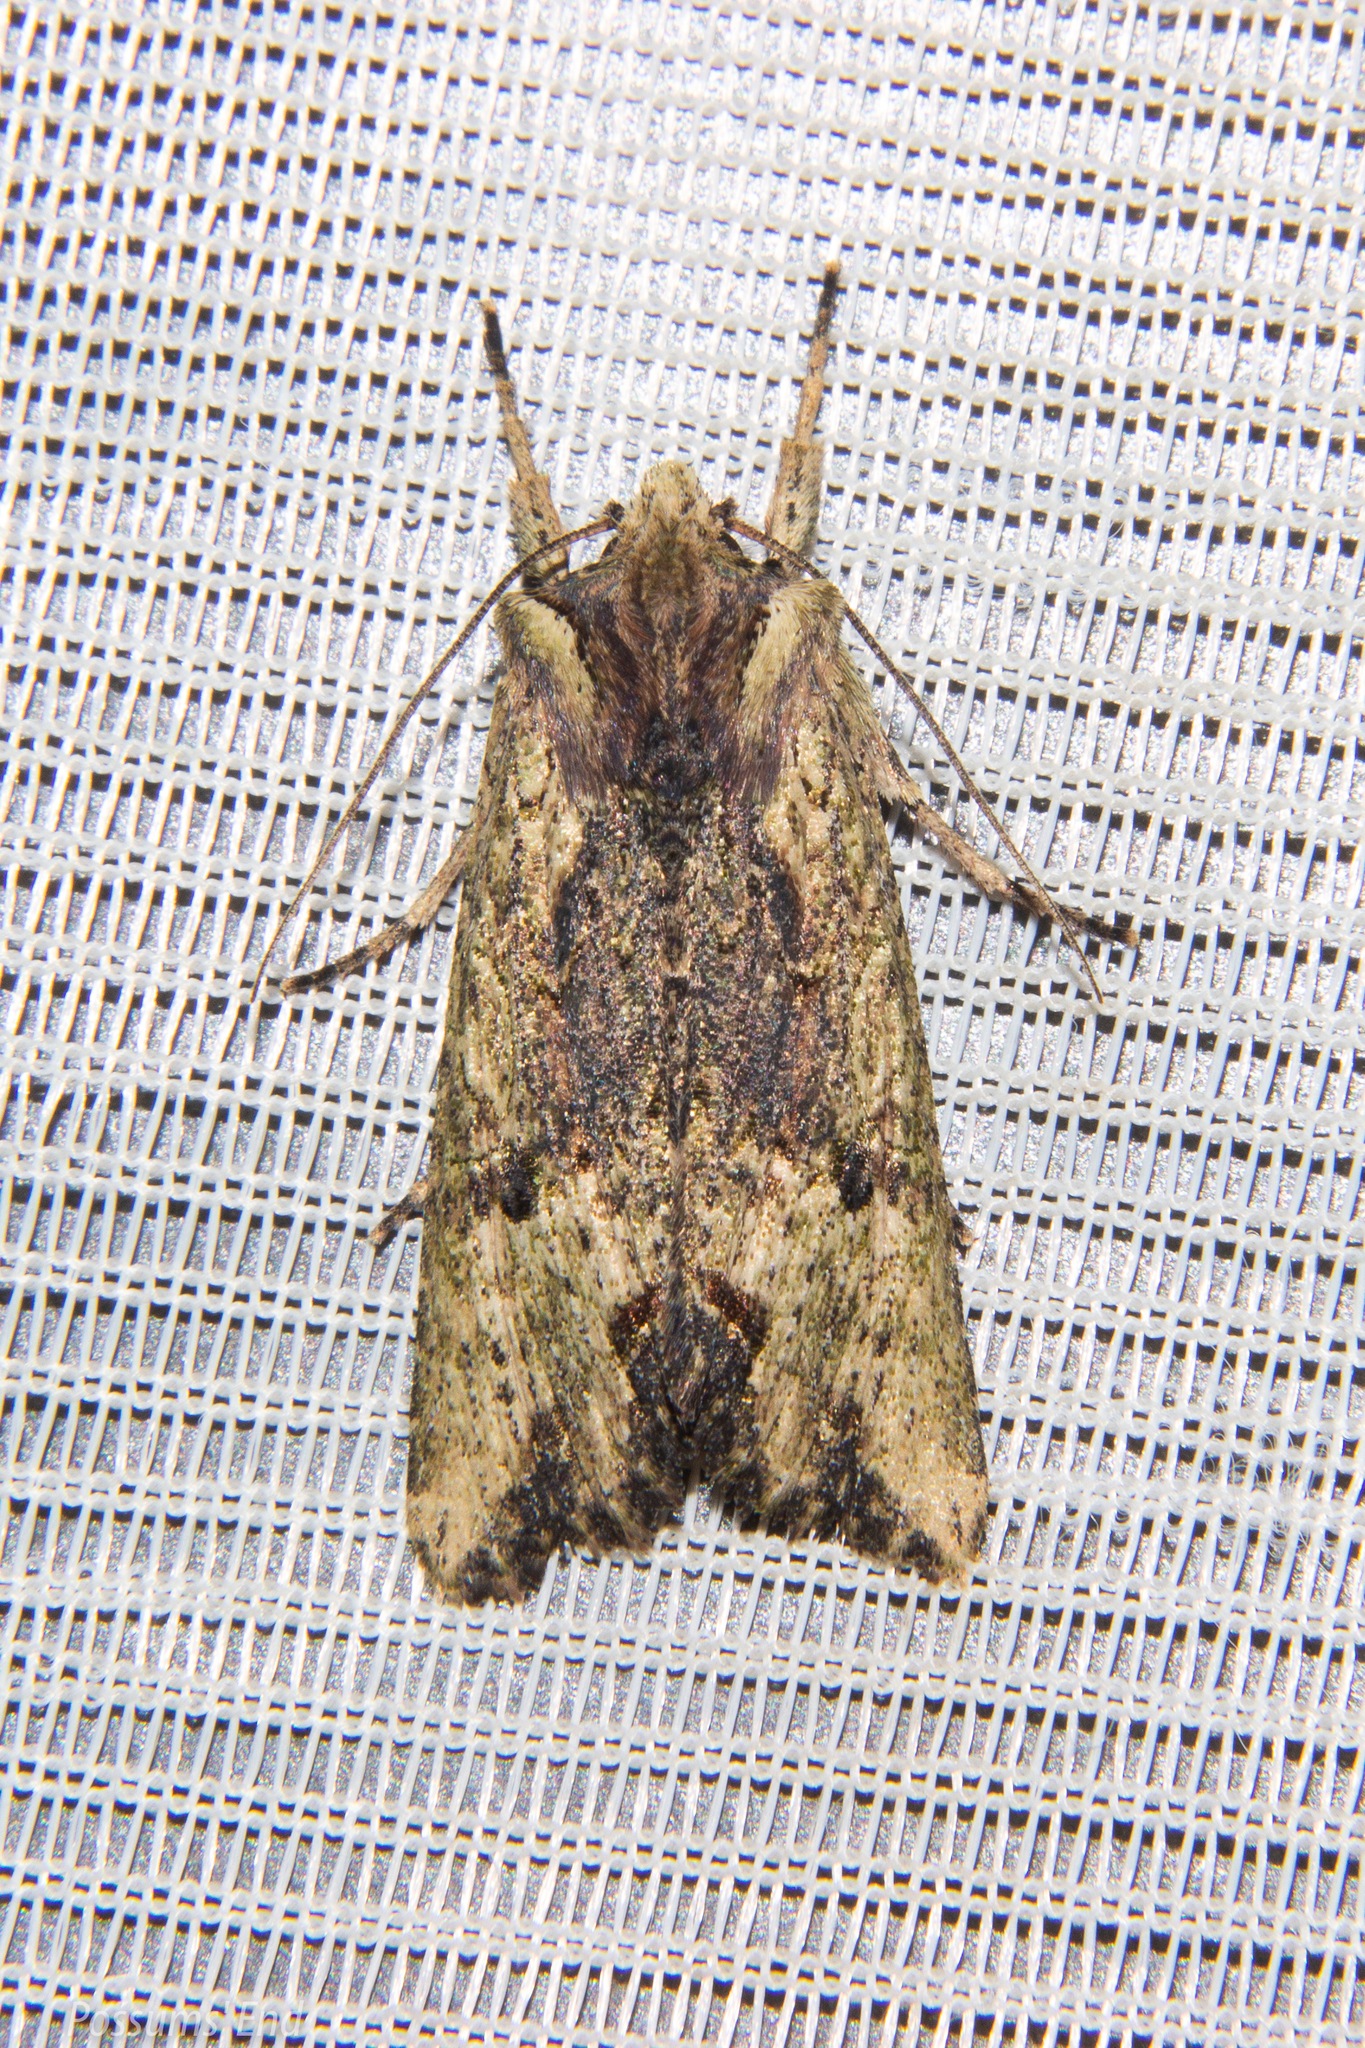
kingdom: Animalia
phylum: Arthropoda
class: Insecta
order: Lepidoptera
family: Noctuidae
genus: Meterana
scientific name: Meterana coeleno
